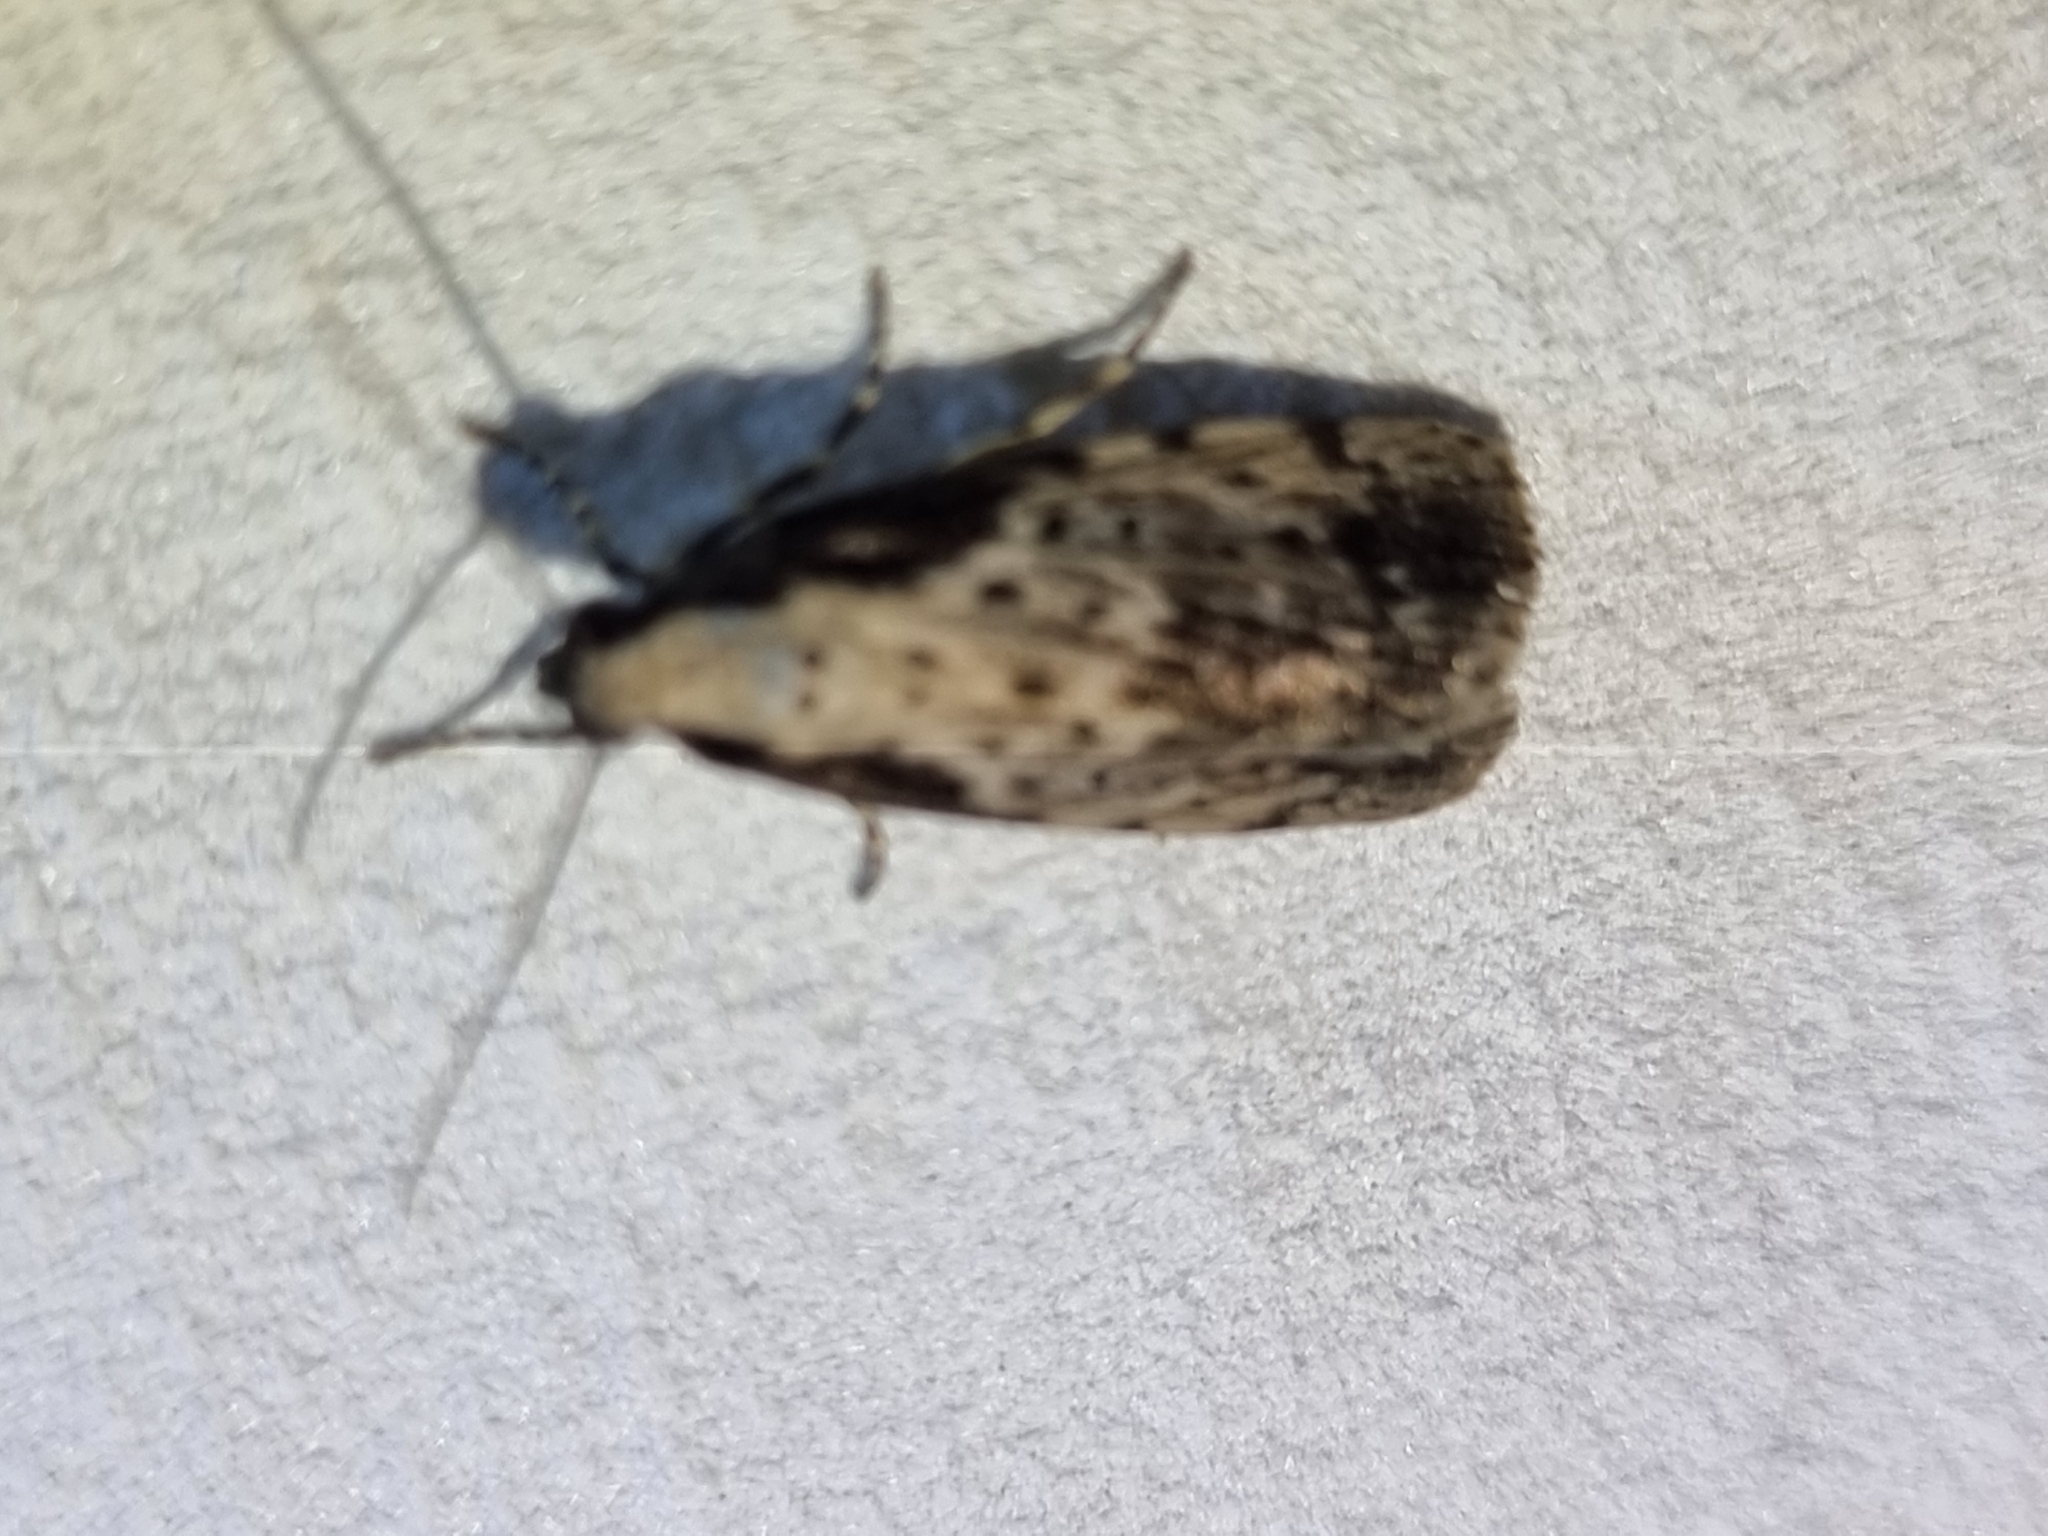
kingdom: Animalia
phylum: Arthropoda
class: Insecta
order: Lepidoptera
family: Erebidae
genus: Digama
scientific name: Digama Sommeria marmorea
